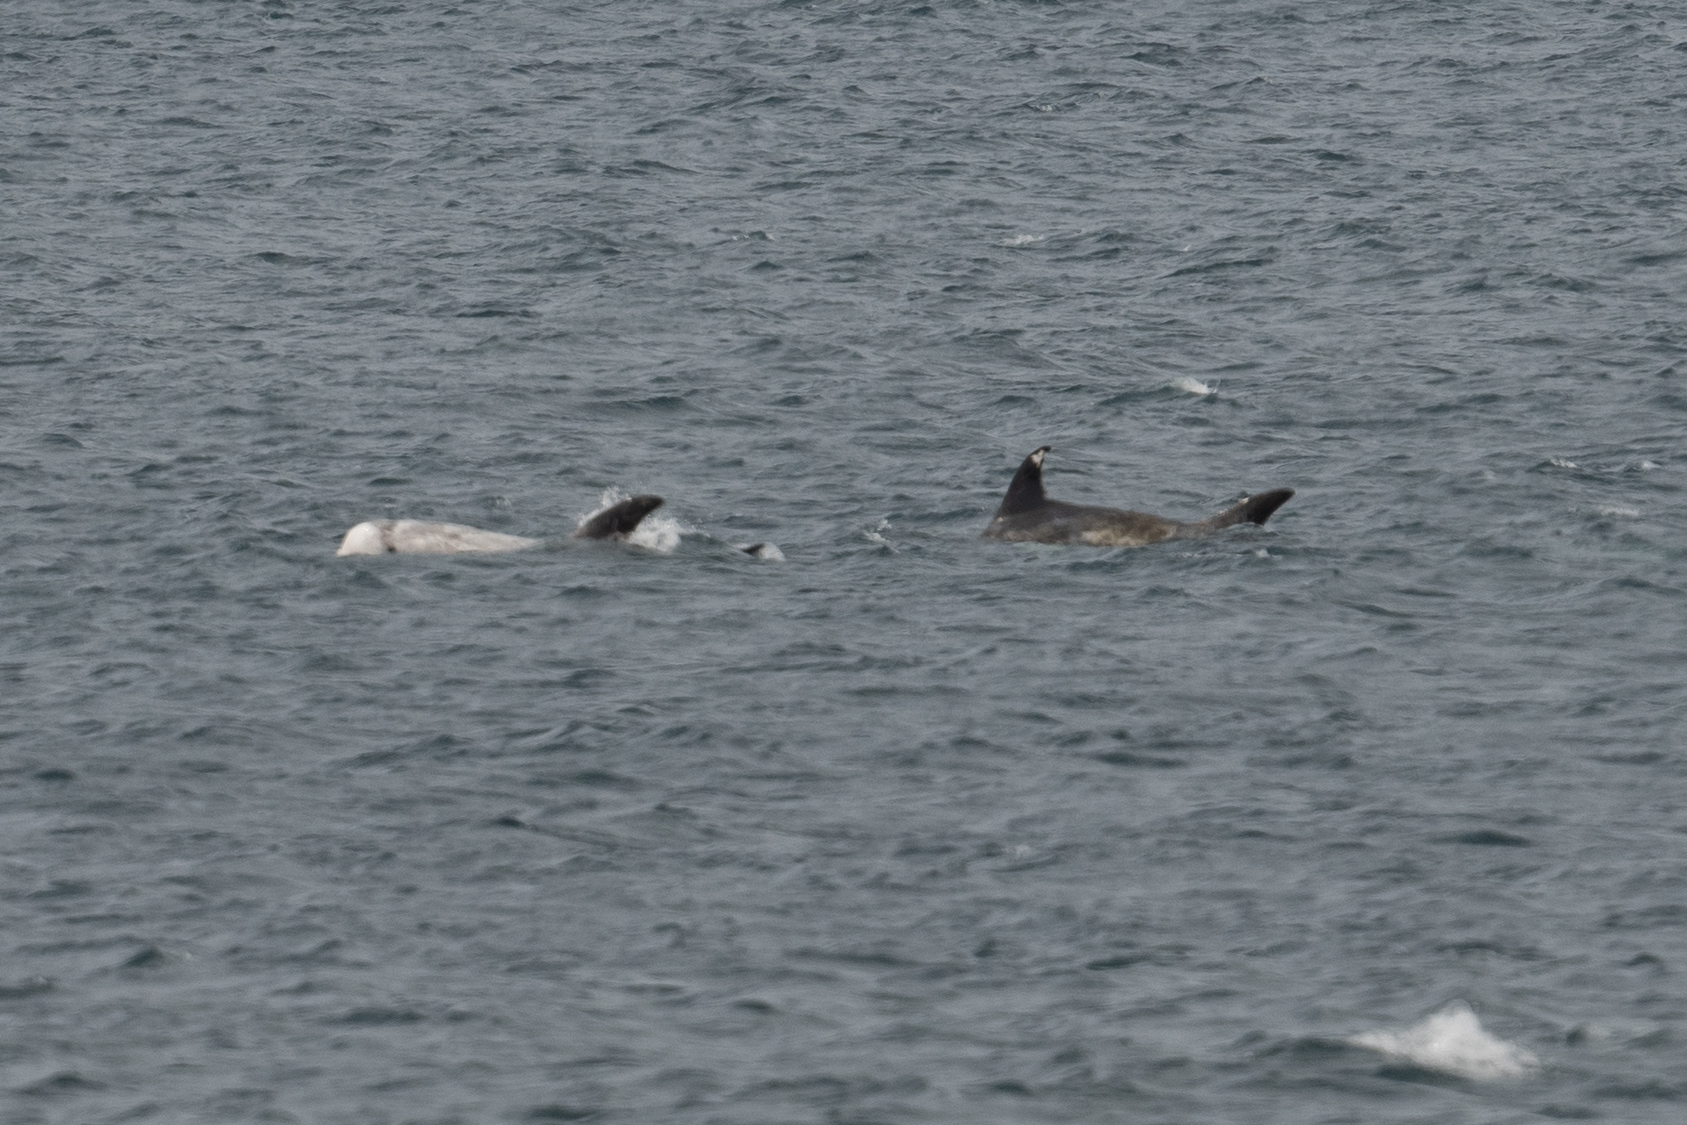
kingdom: Animalia
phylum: Chordata
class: Mammalia
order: Cetacea
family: Delphinidae
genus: Grampus
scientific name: Grampus griseus
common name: Risso's dolphin
